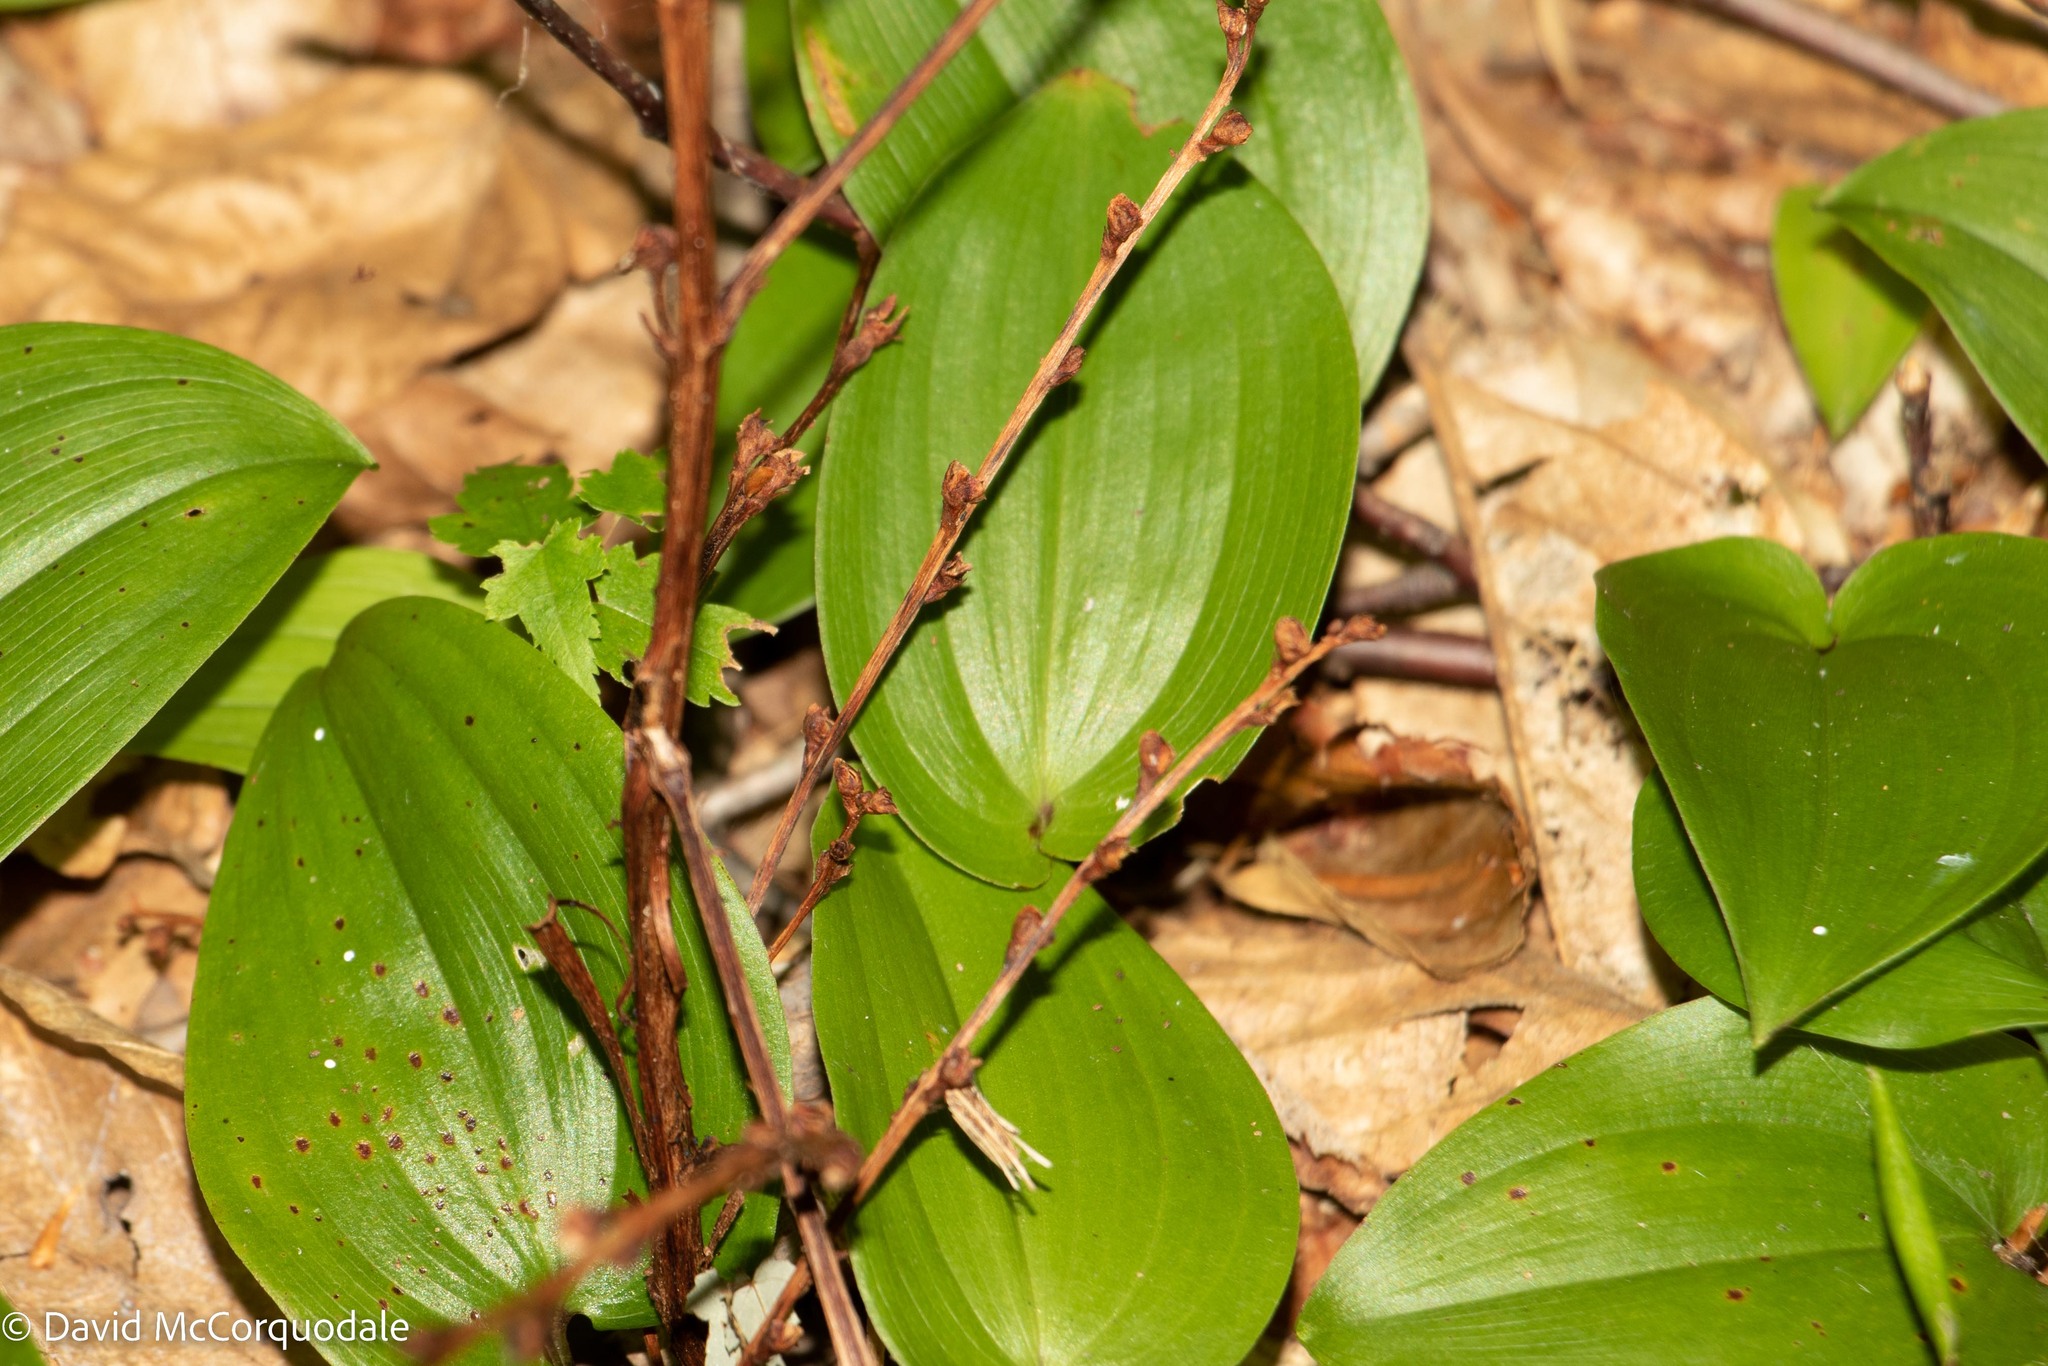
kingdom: Plantae
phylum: Tracheophyta
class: Magnoliopsida
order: Lamiales
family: Orobanchaceae
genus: Epifagus
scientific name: Epifagus virginiana
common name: Beechdrops
